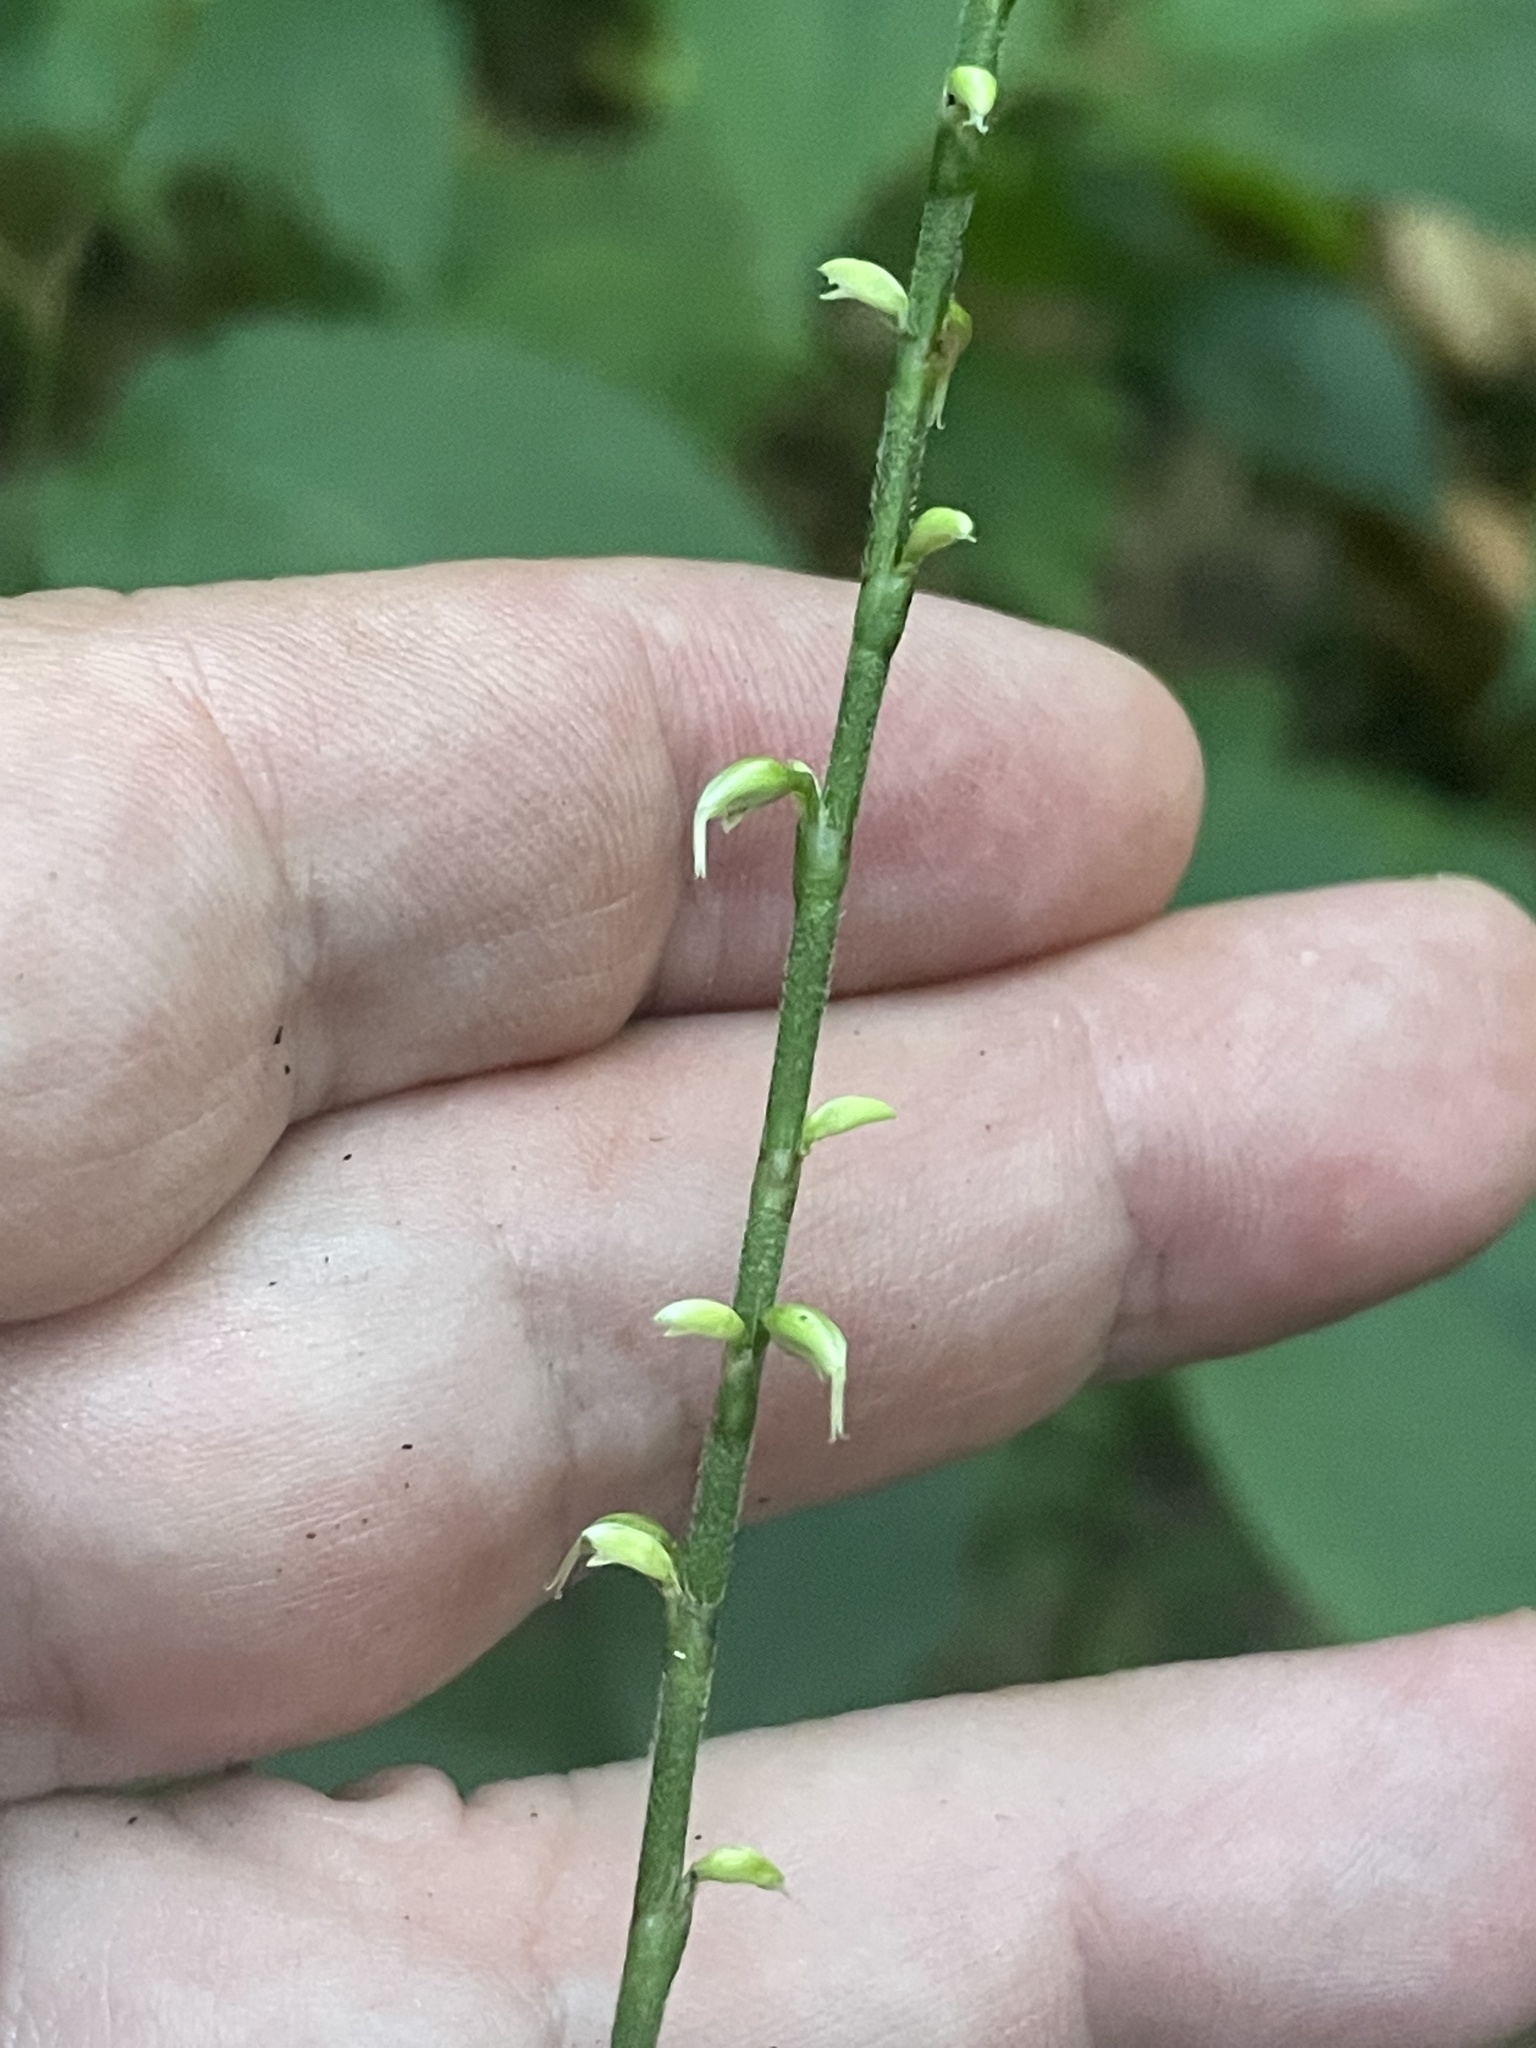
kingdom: Plantae
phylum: Tracheophyta
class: Magnoliopsida
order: Caryophyllales
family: Polygonaceae
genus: Persicaria
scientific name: Persicaria virginiana
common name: Jumpseed
